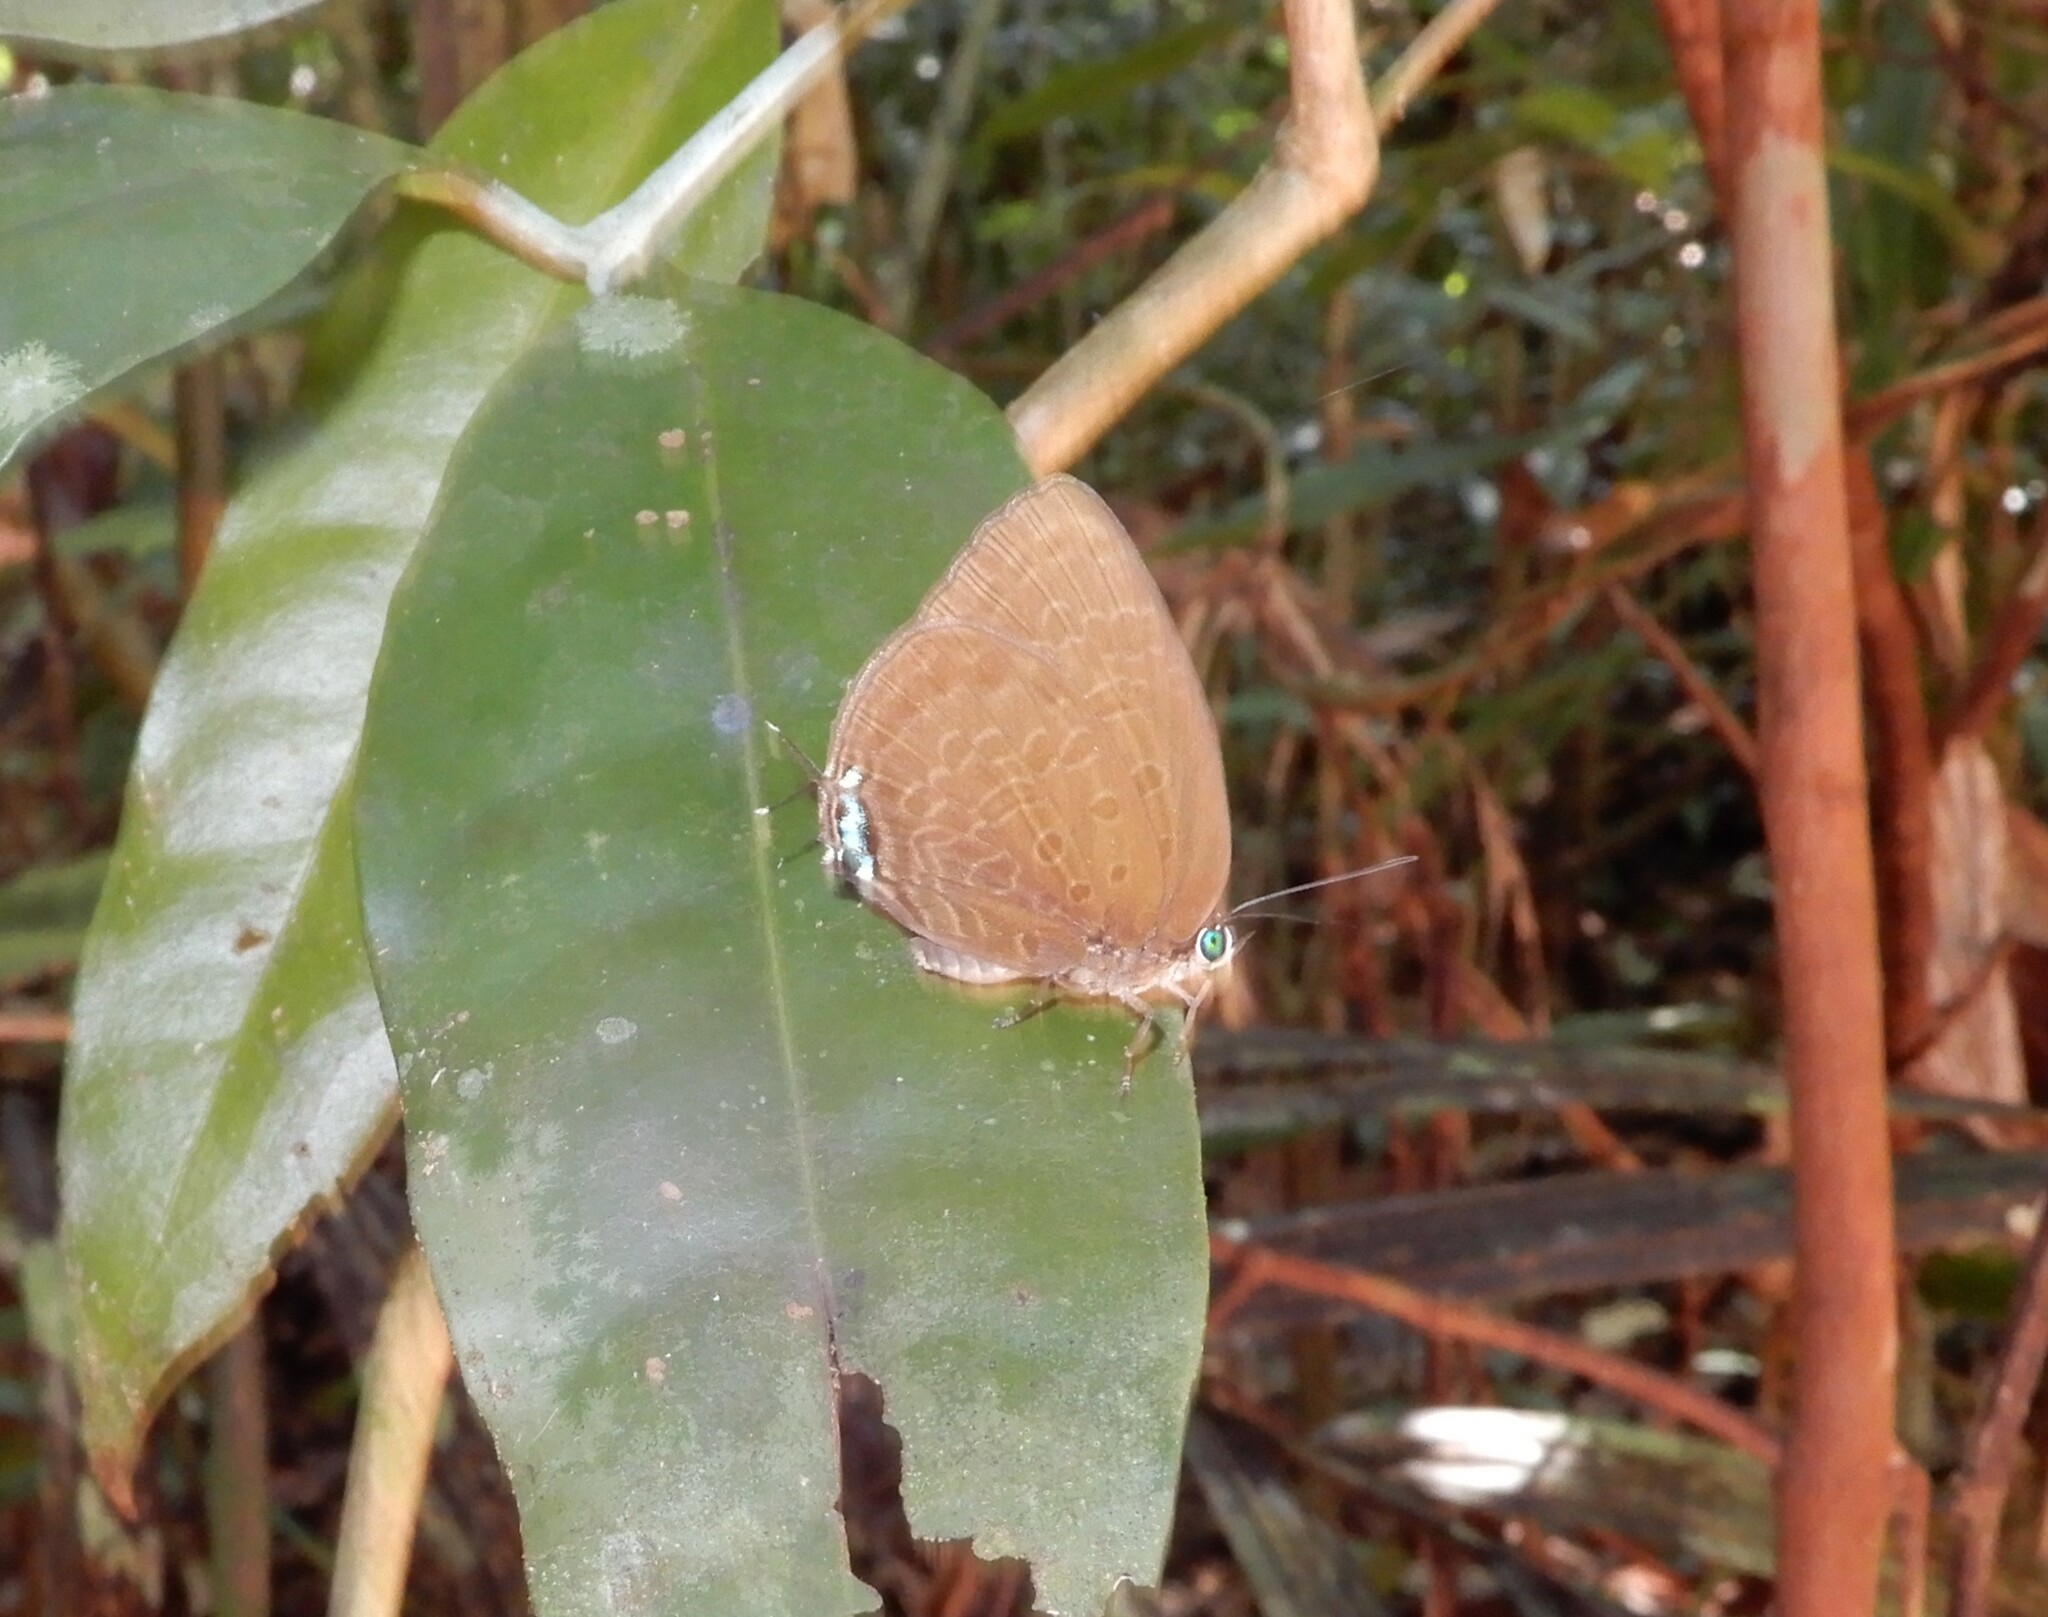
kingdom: Animalia
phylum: Arthropoda
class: Insecta
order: Lepidoptera
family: Lycaenidae
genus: Arhopala
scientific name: Arhopala atosia
